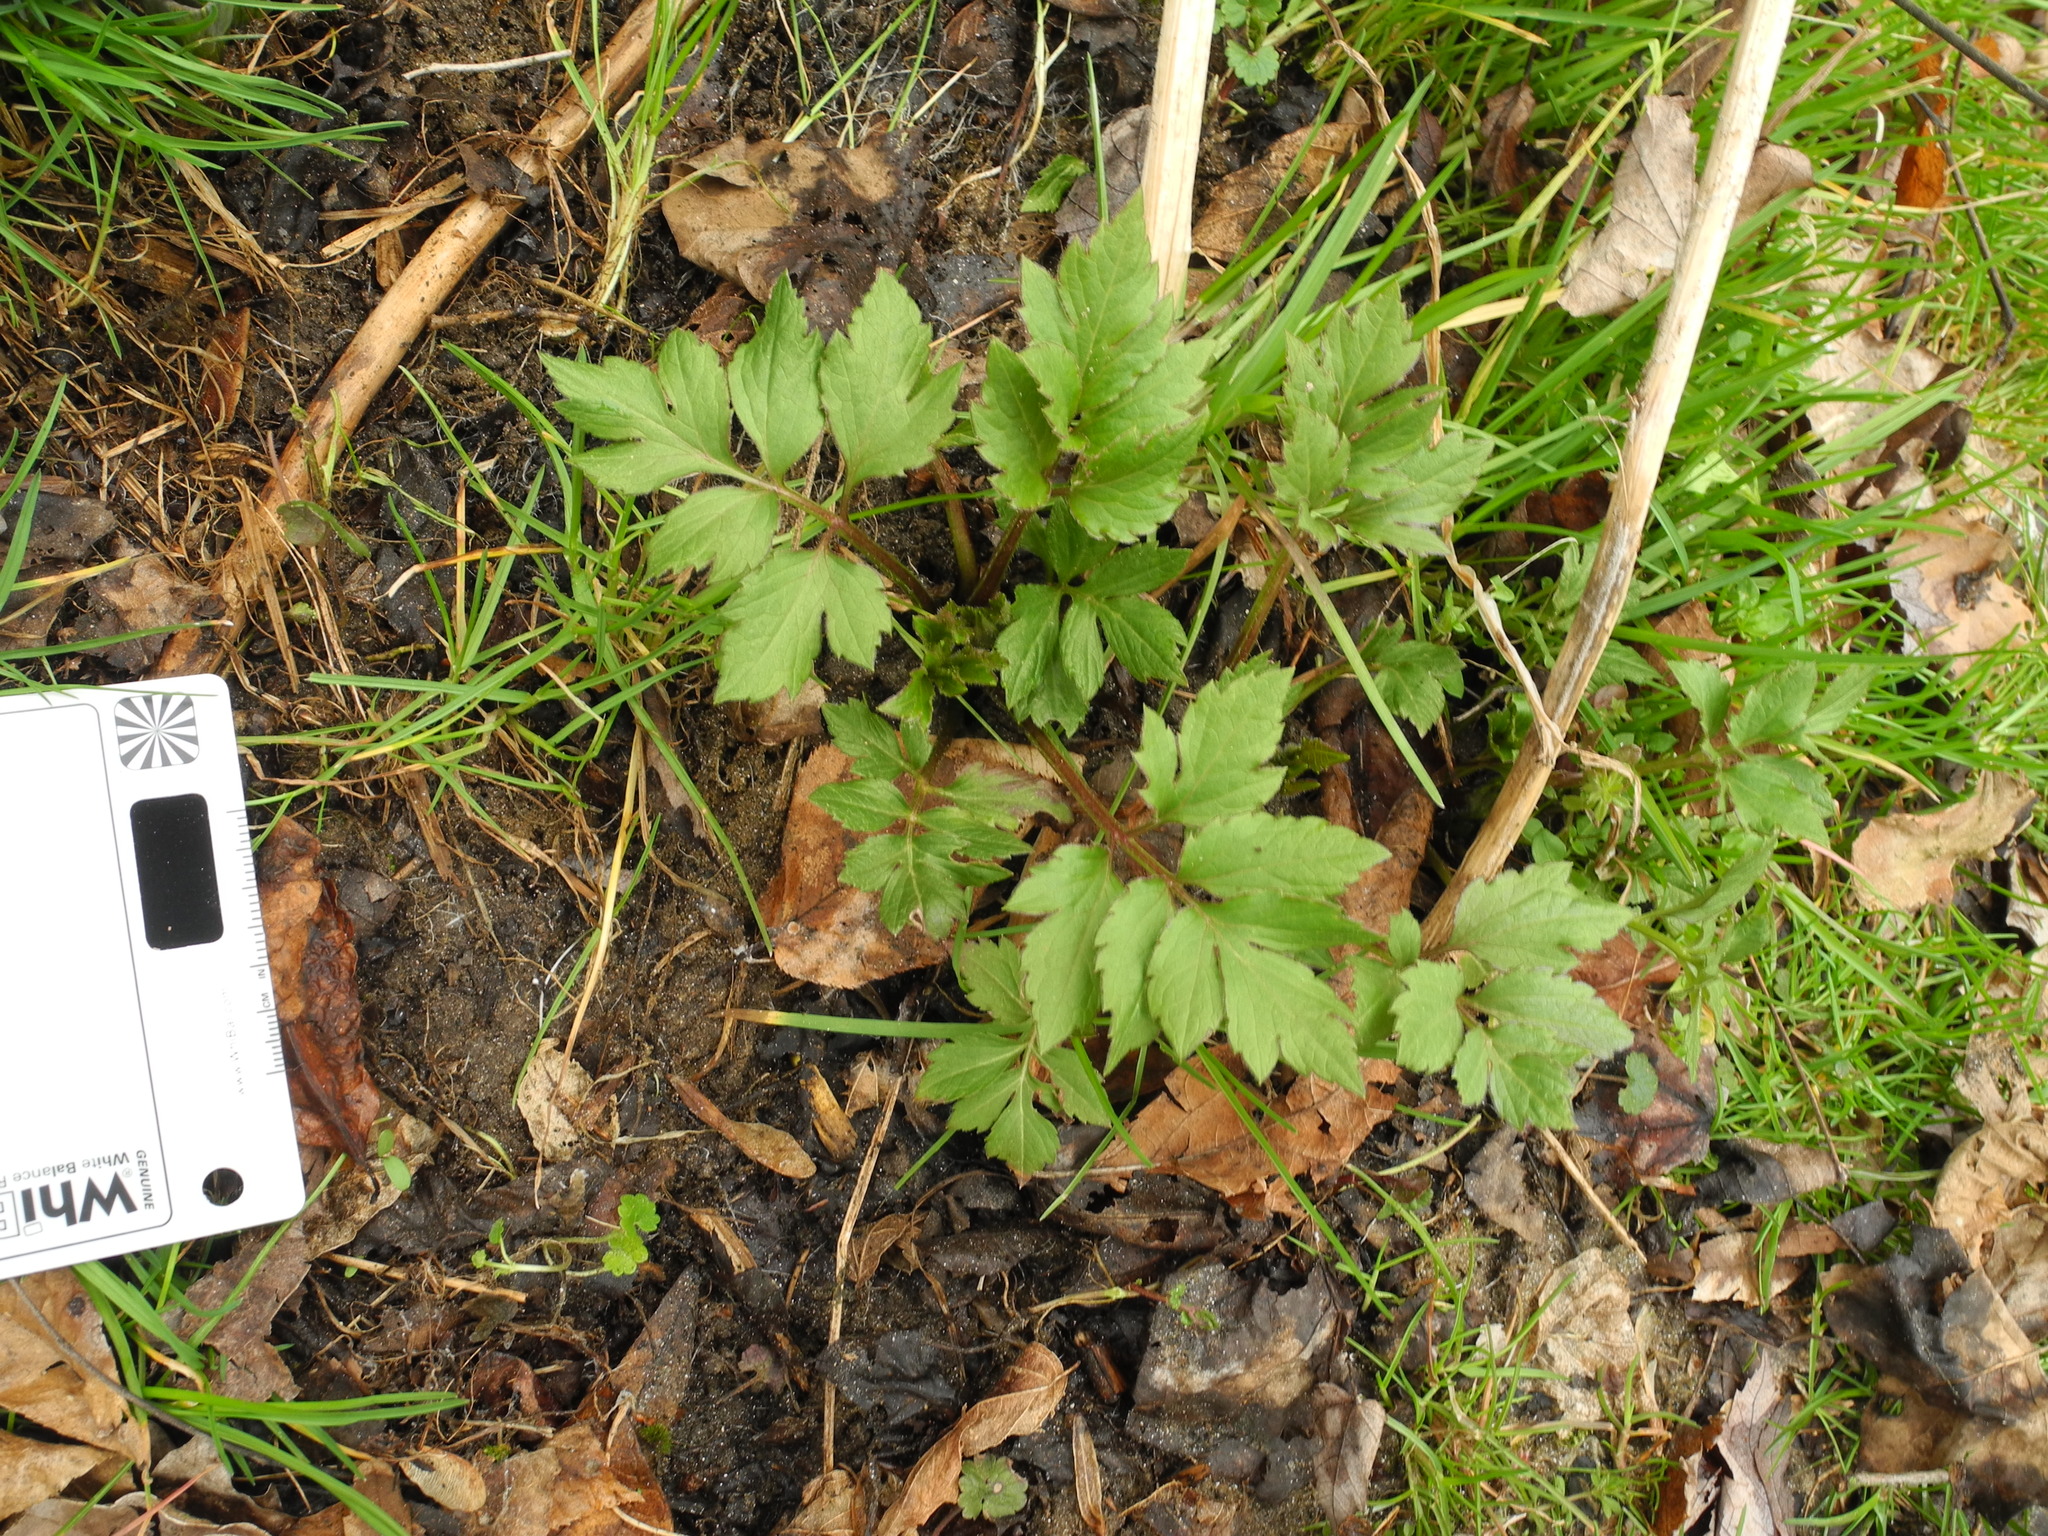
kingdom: Plantae
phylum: Tracheophyta
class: Magnoliopsida
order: Asterales
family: Asteraceae
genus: Rudbeckia
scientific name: Rudbeckia laciniata
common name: Coneflower
